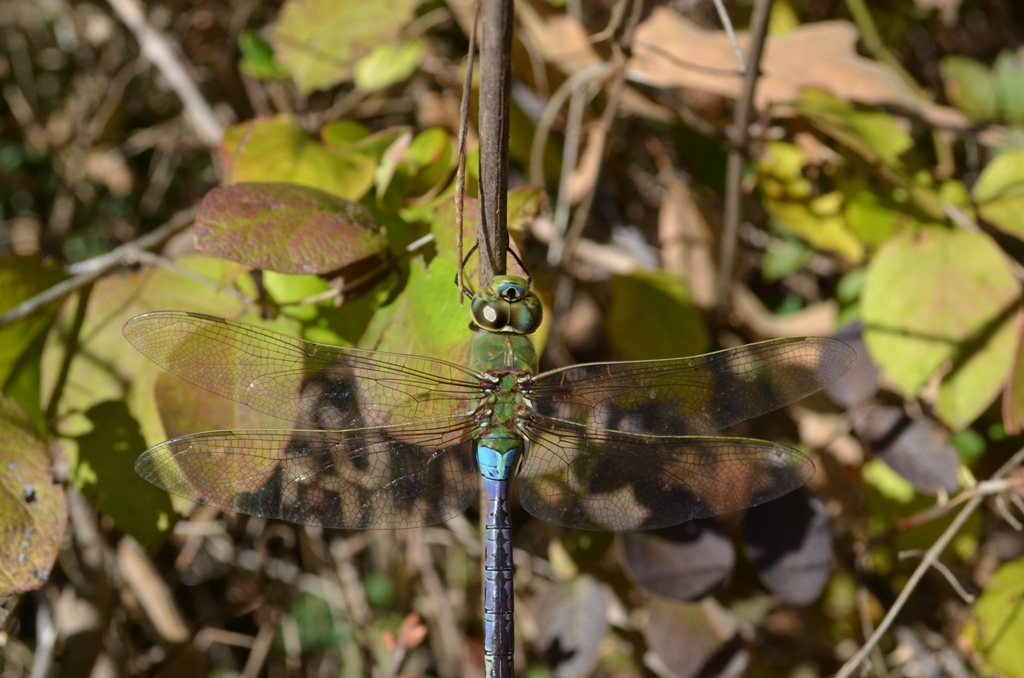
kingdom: Animalia
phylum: Arthropoda
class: Insecta
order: Odonata
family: Aeshnidae
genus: Anax
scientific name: Anax junius
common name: Common green darner
